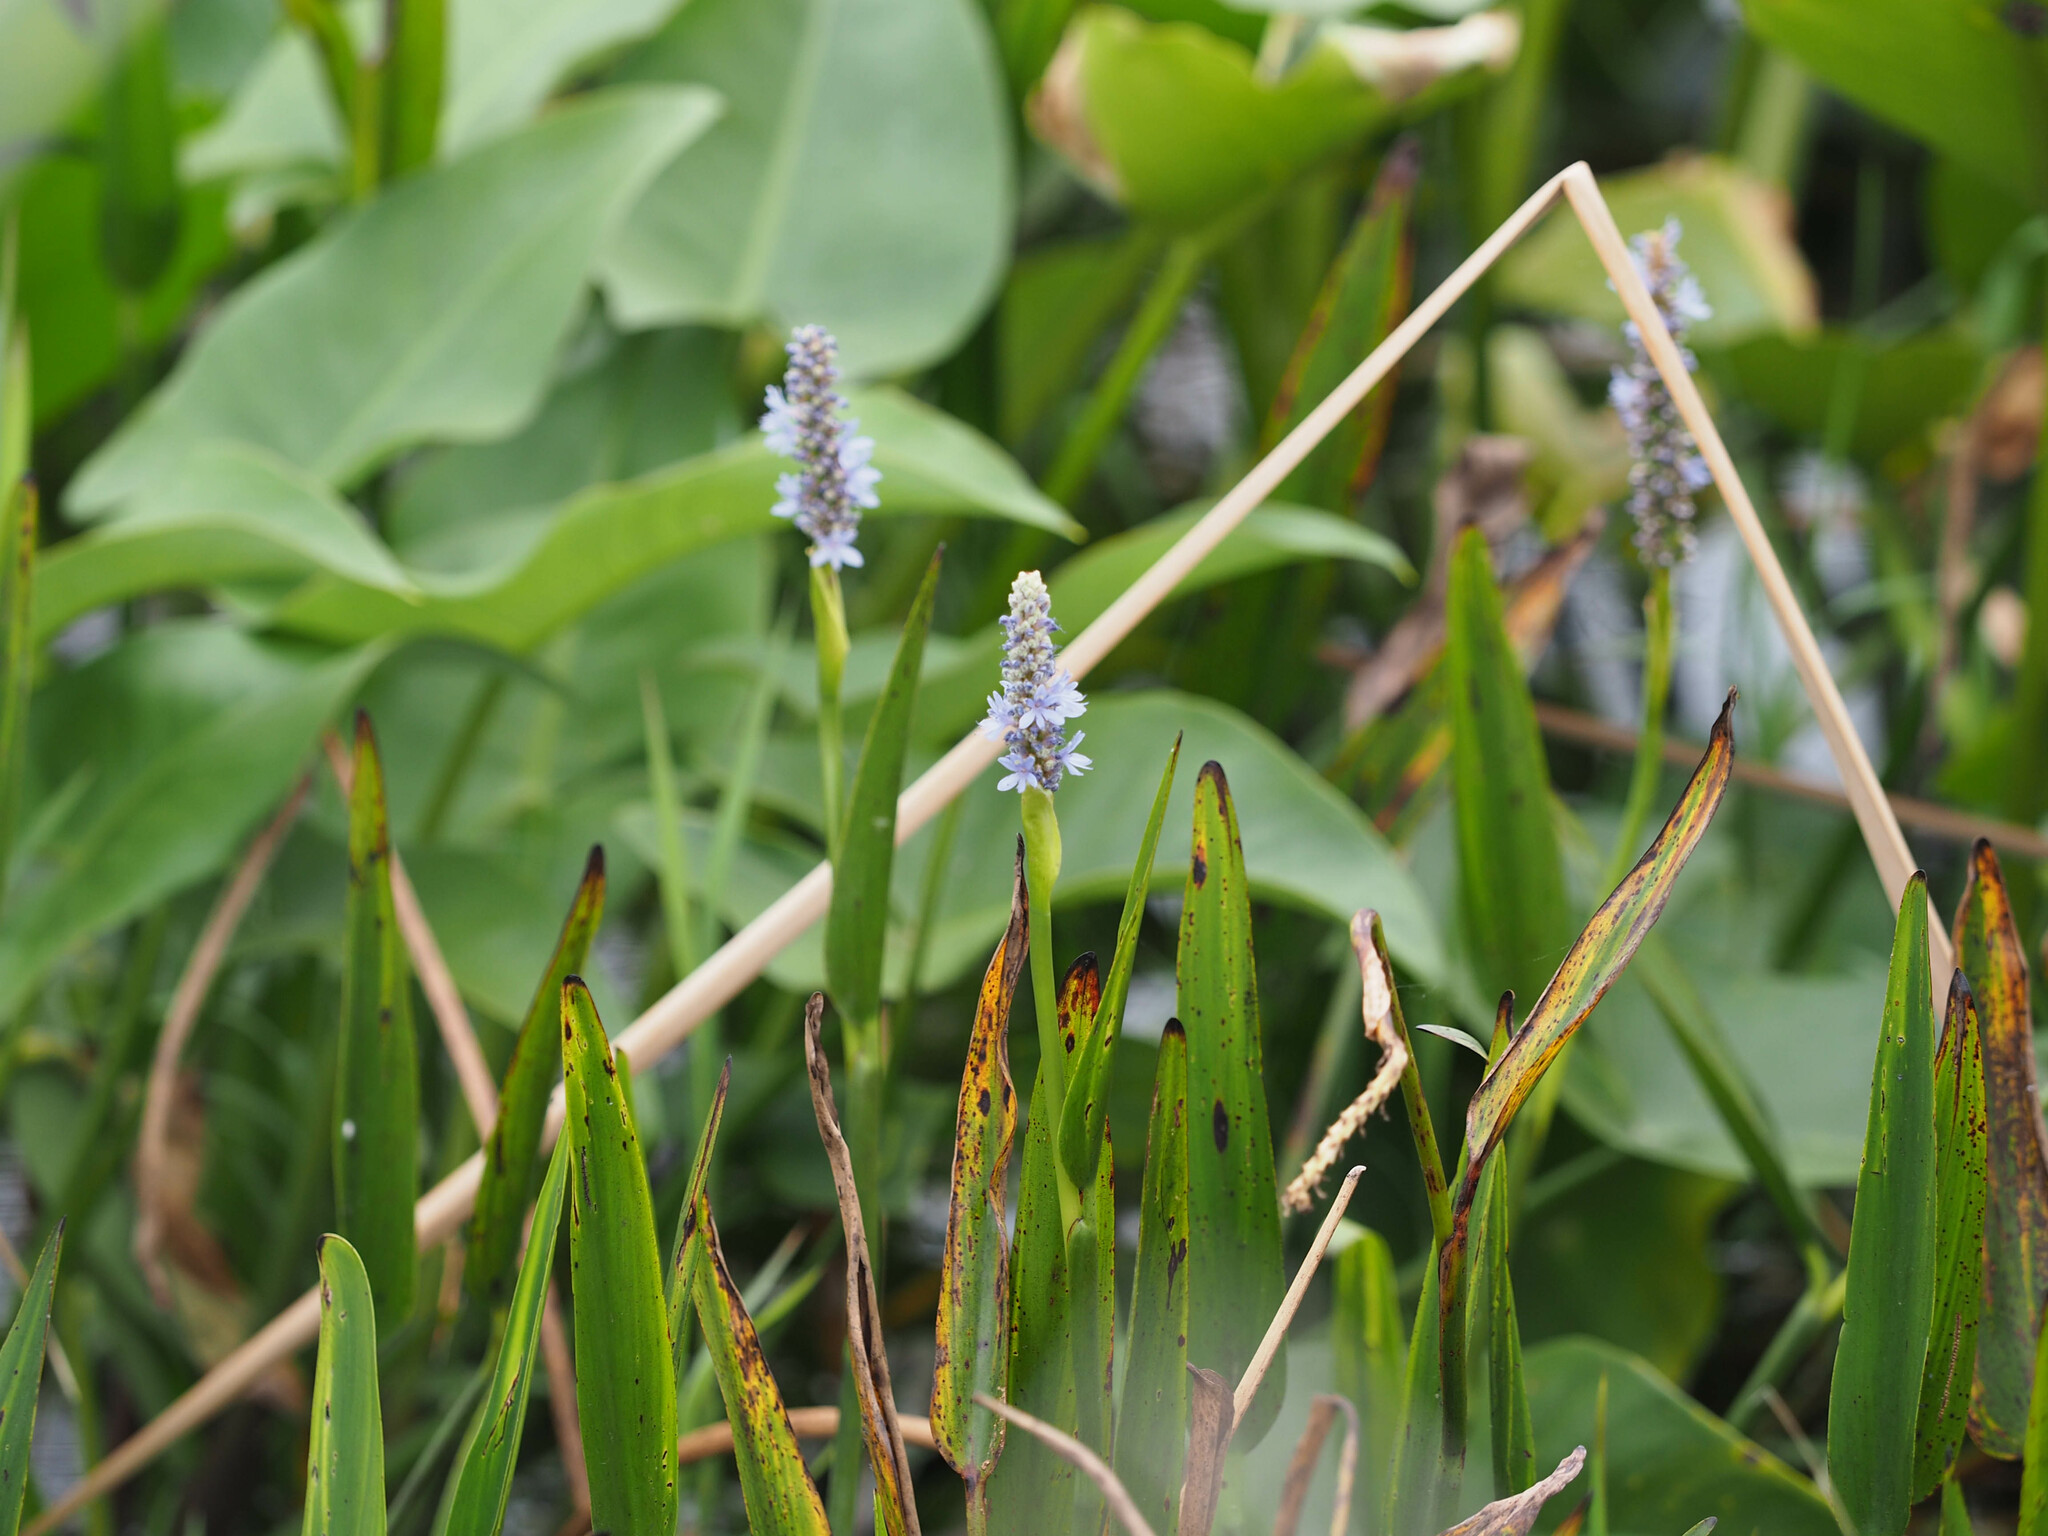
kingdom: Plantae
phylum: Tracheophyta
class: Liliopsida
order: Commelinales
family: Pontederiaceae
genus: Pontederia
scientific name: Pontederia cordata
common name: Pickerelweed
